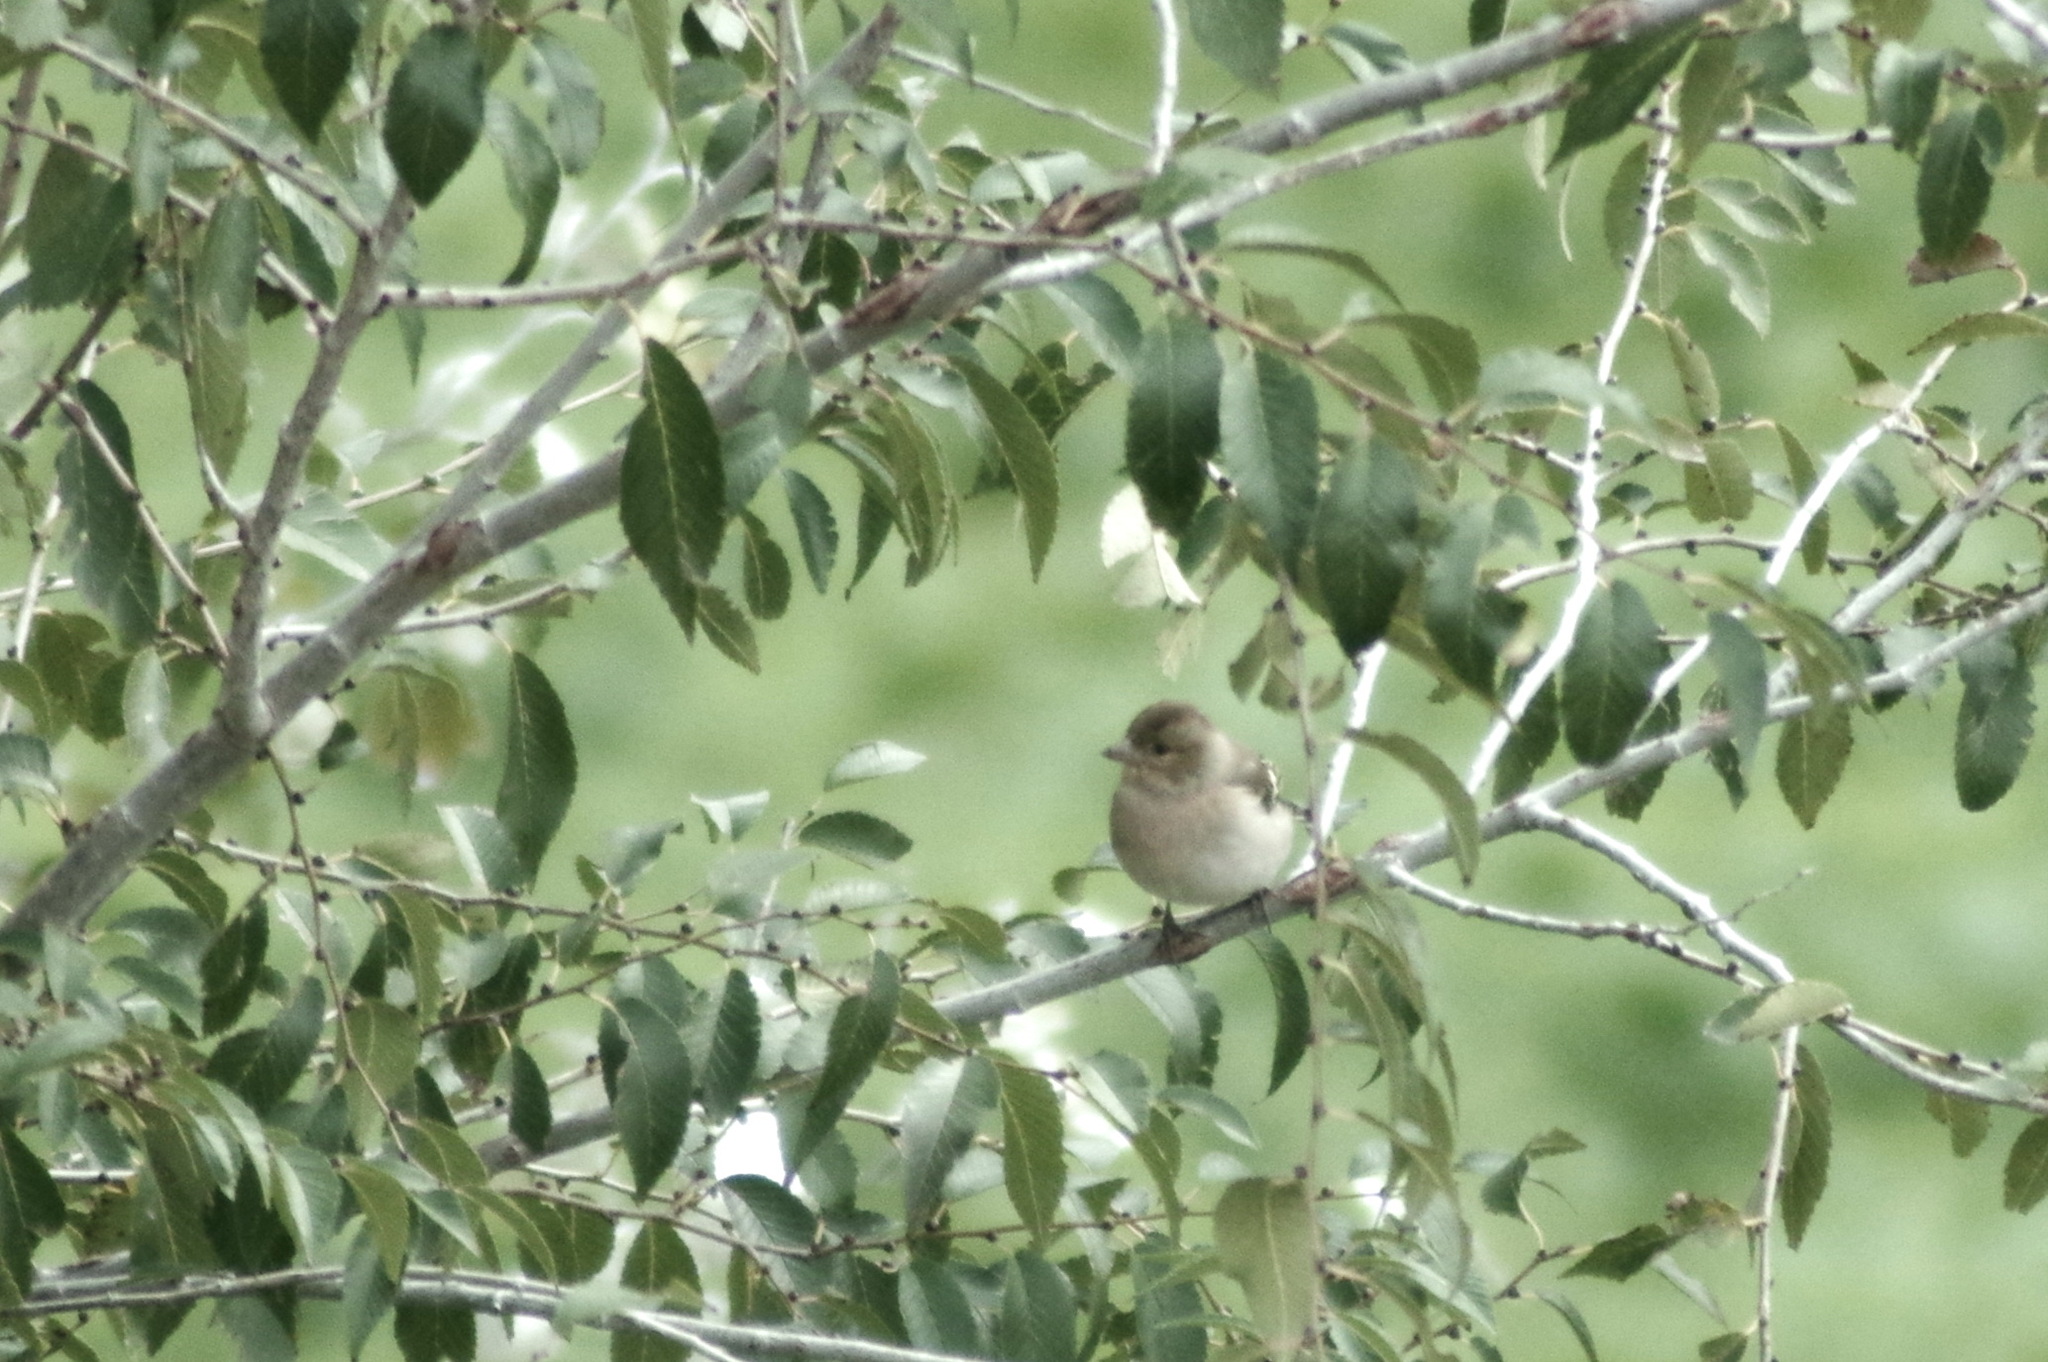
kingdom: Animalia
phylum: Chordata
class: Aves
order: Passeriformes
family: Fringillidae
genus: Fringilla
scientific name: Fringilla coelebs
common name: Common chaffinch
